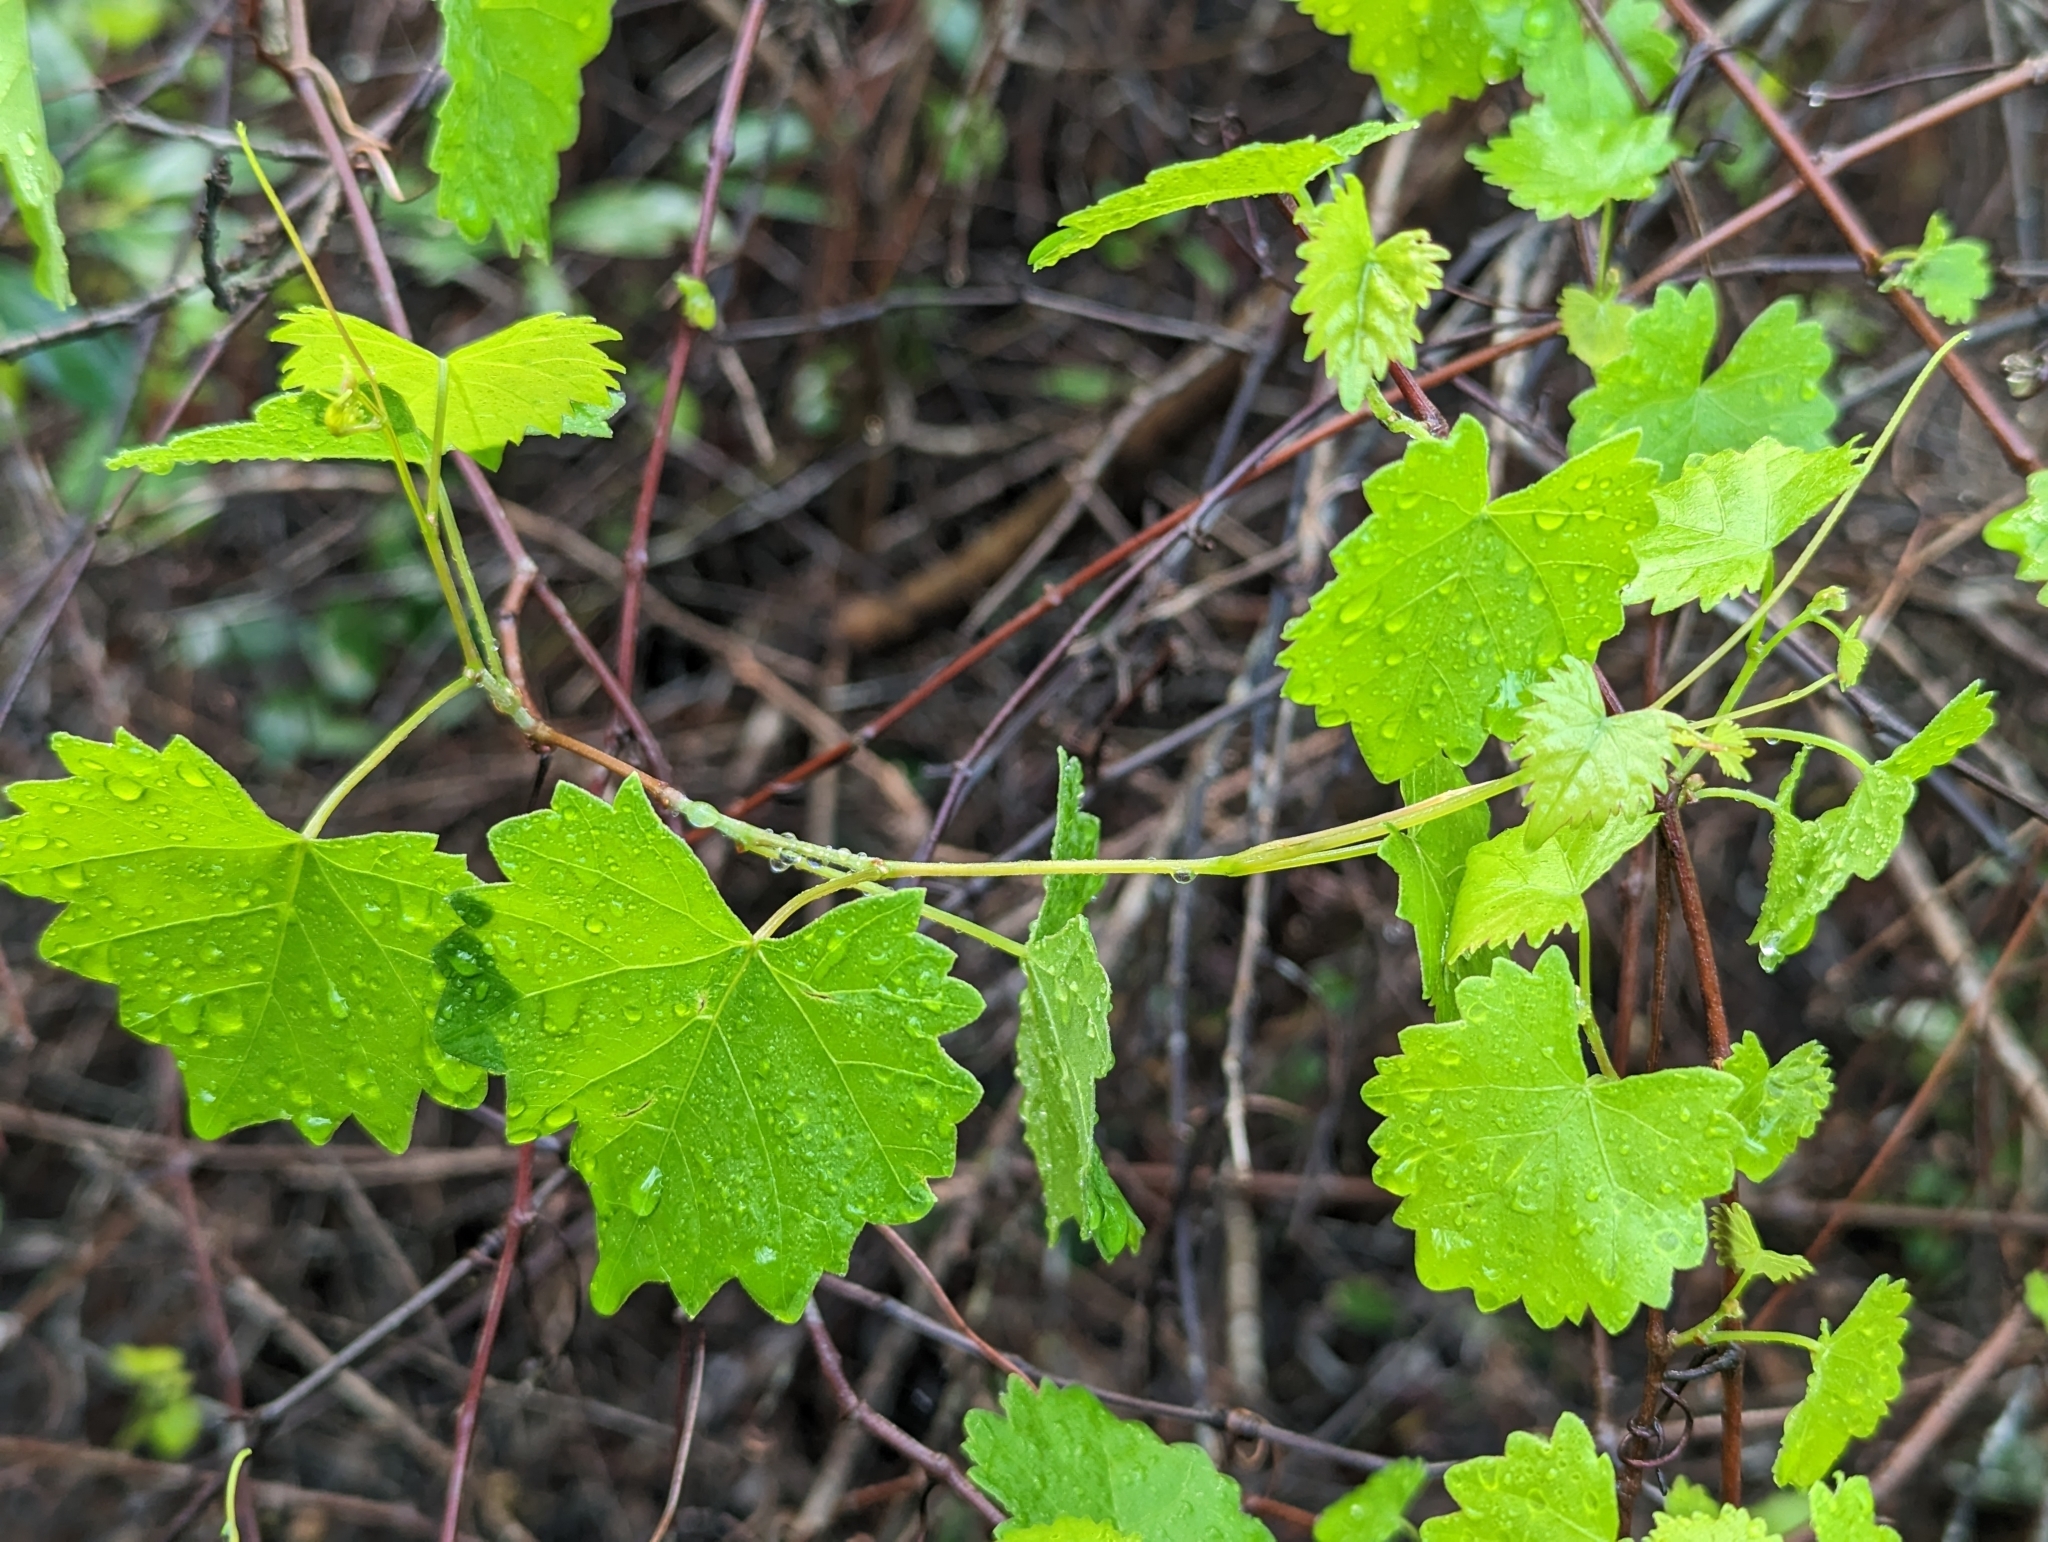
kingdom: Plantae
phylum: Tracheophyta
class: Magnoliopsida
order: Vitales
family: Vitaceae
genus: Vitis
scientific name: Vitis rotundifolia
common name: Muscadine grape
